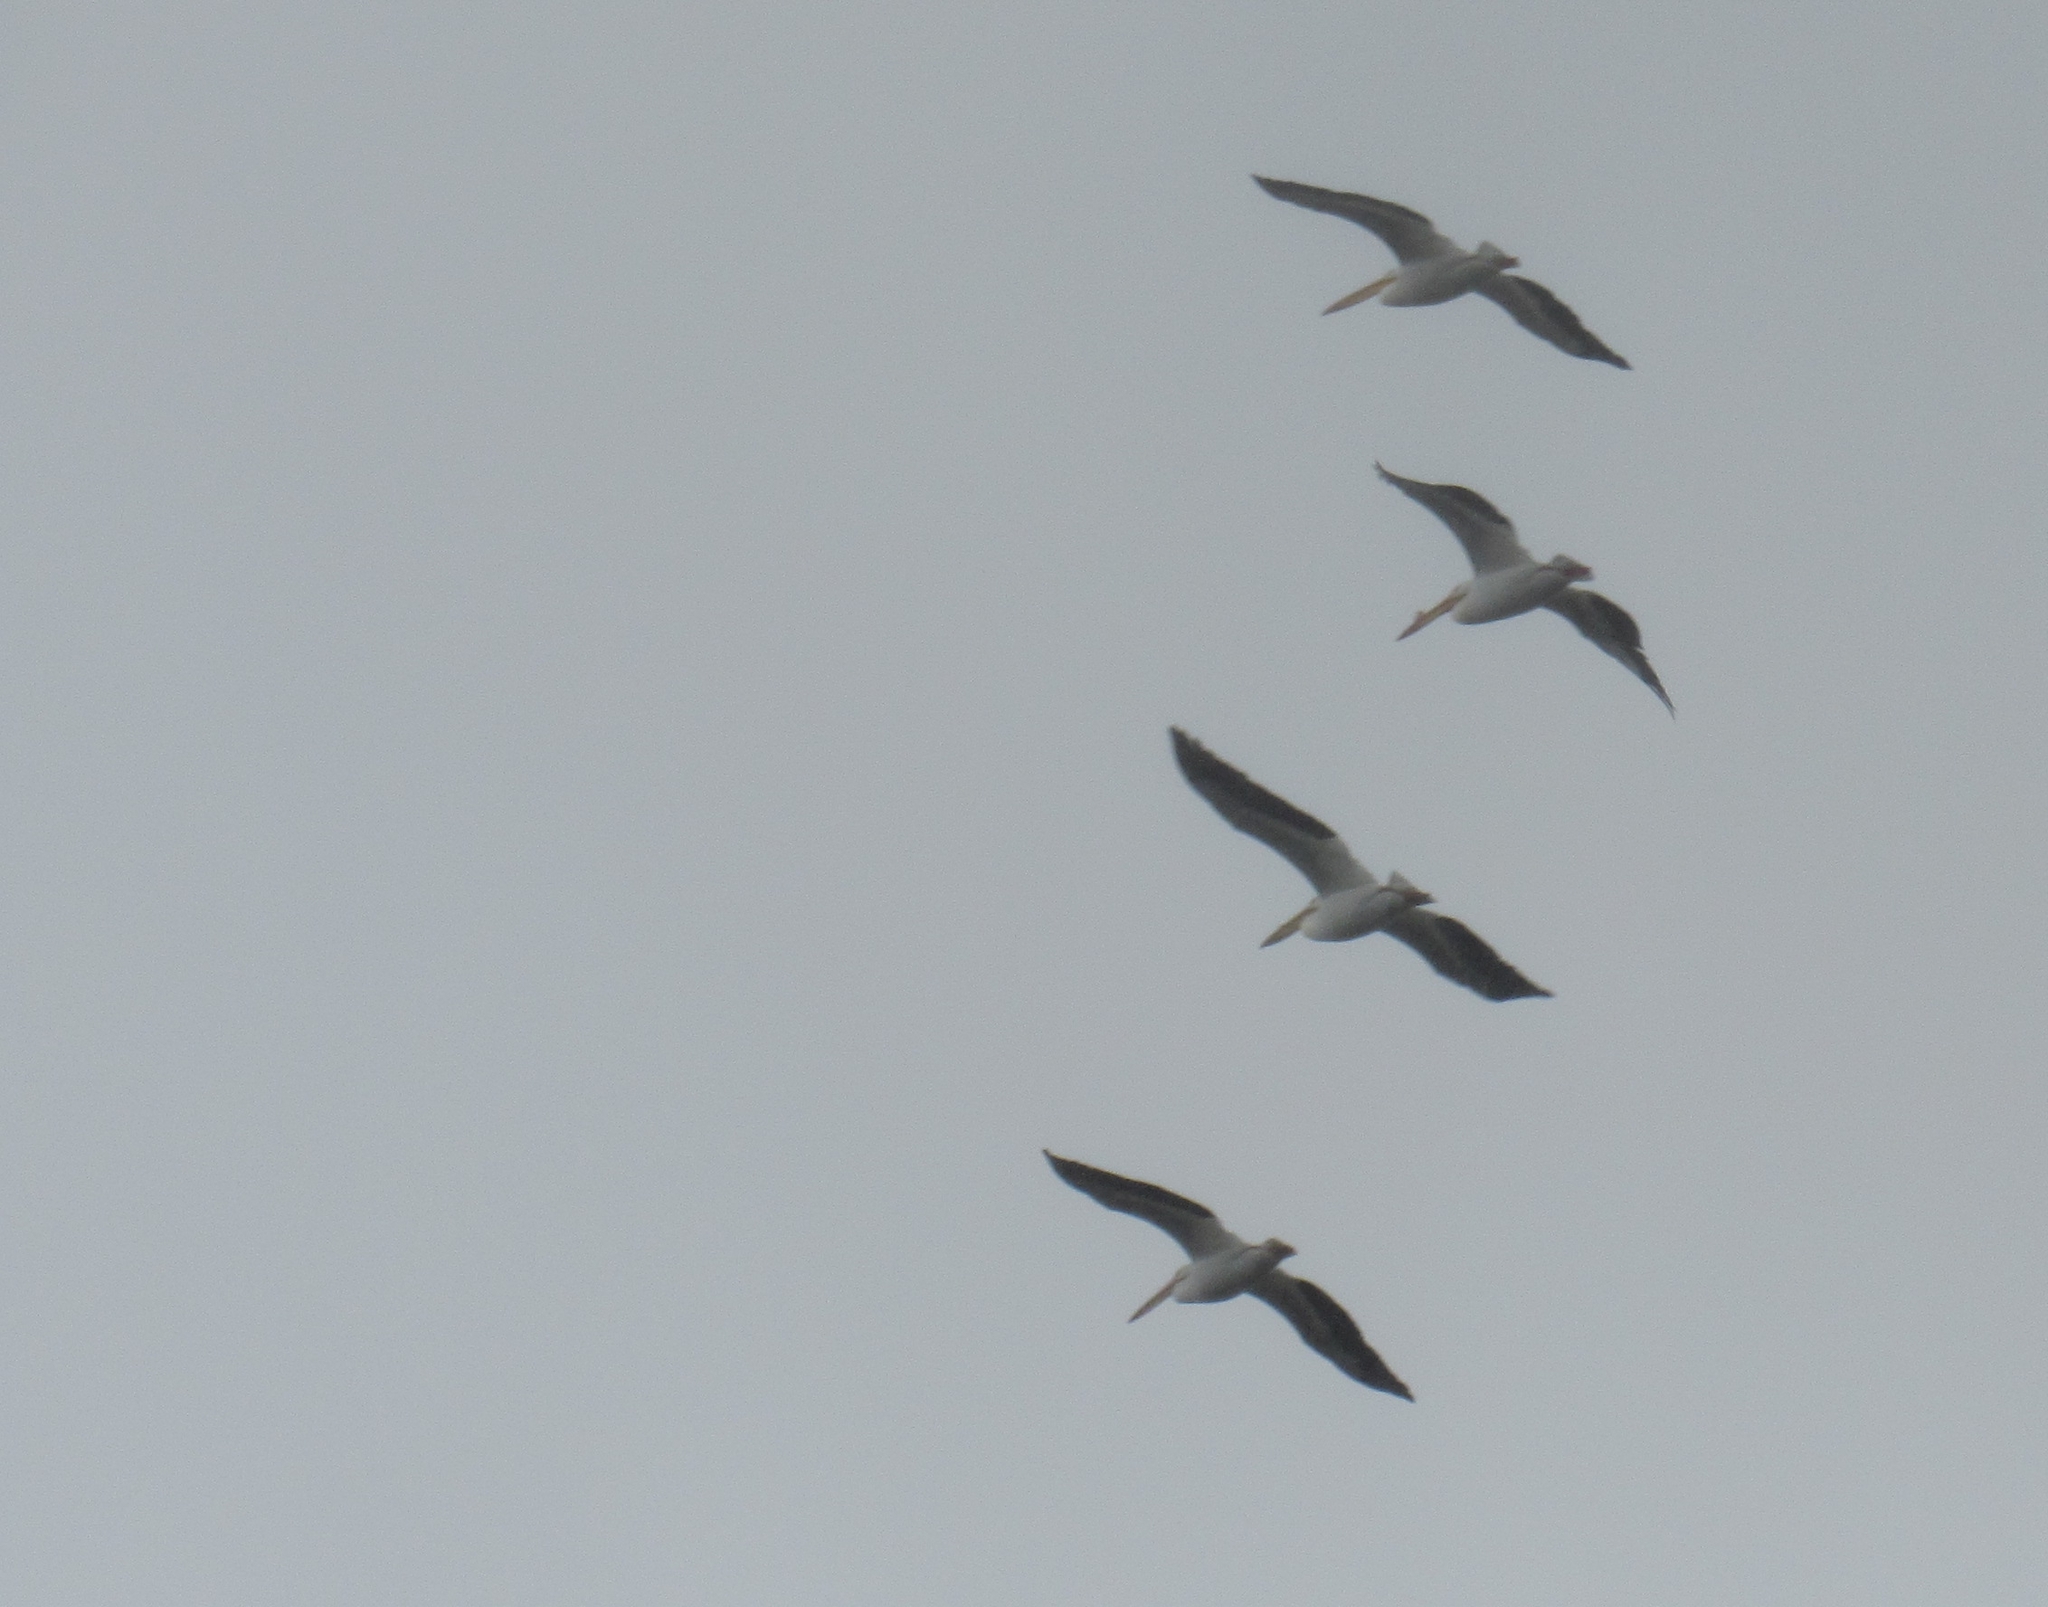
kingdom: Animalia
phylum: Chordata
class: Aves
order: Pelecaniformes
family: Pelecanidae
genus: Pelecanus
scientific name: Pelecanus erythrorhynchos
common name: American white pelican
